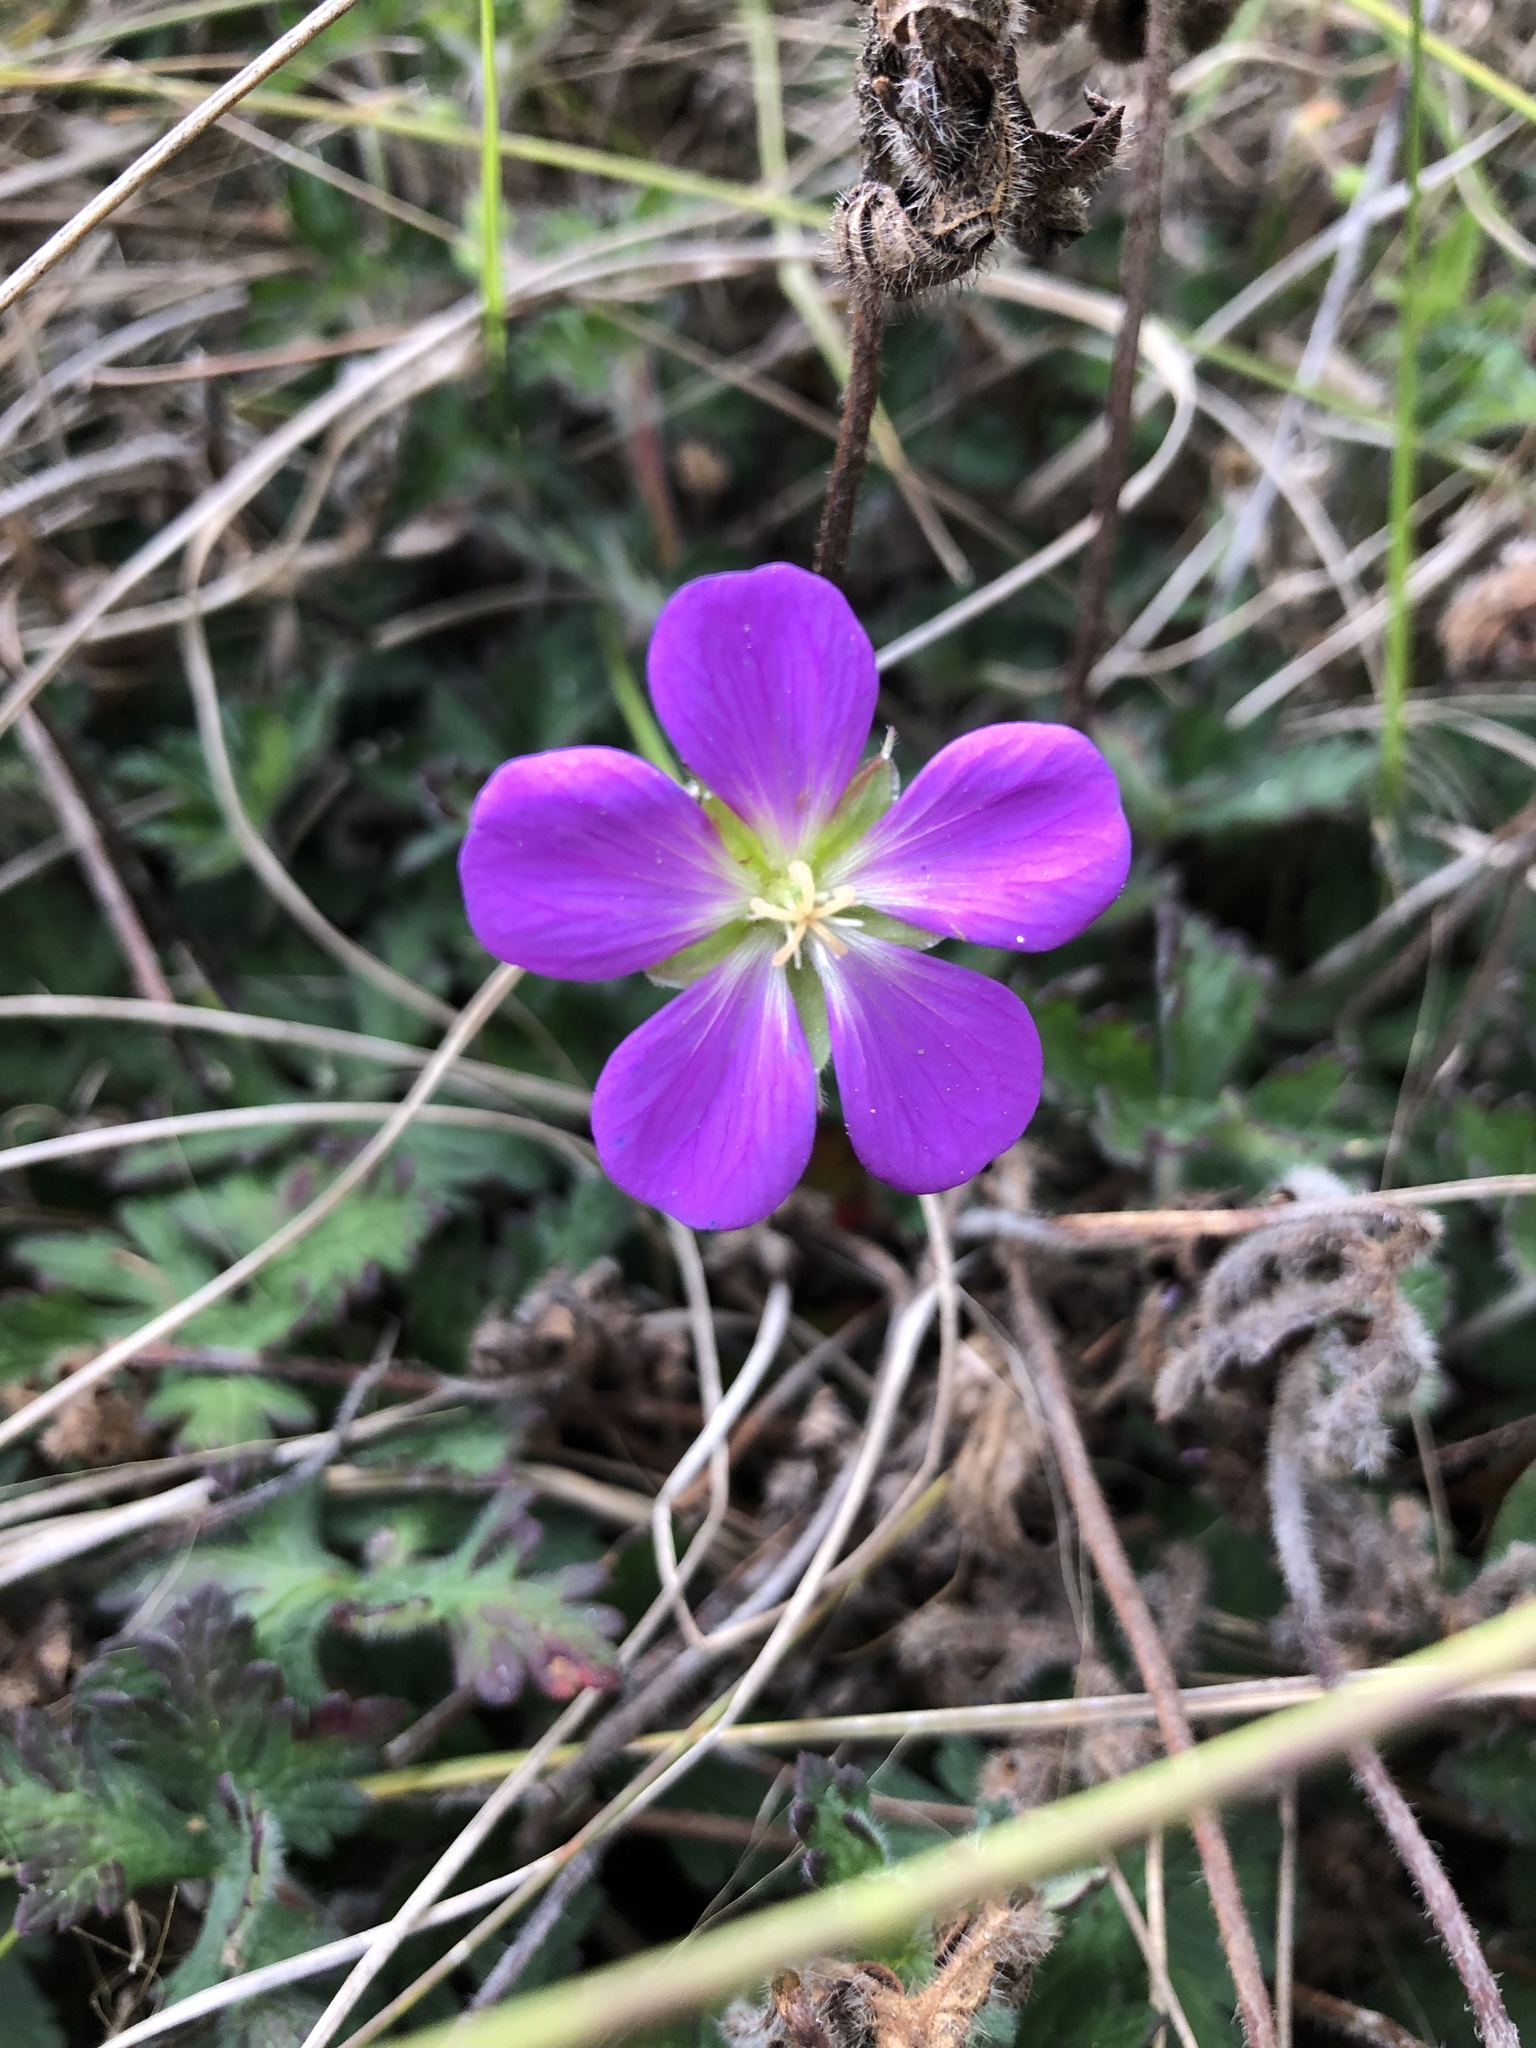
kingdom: Plantae
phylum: Tracheophyta
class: Magnoliopsida
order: Geraniales
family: Geraniaceae
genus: Geranium
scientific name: Geranium goldmanii
